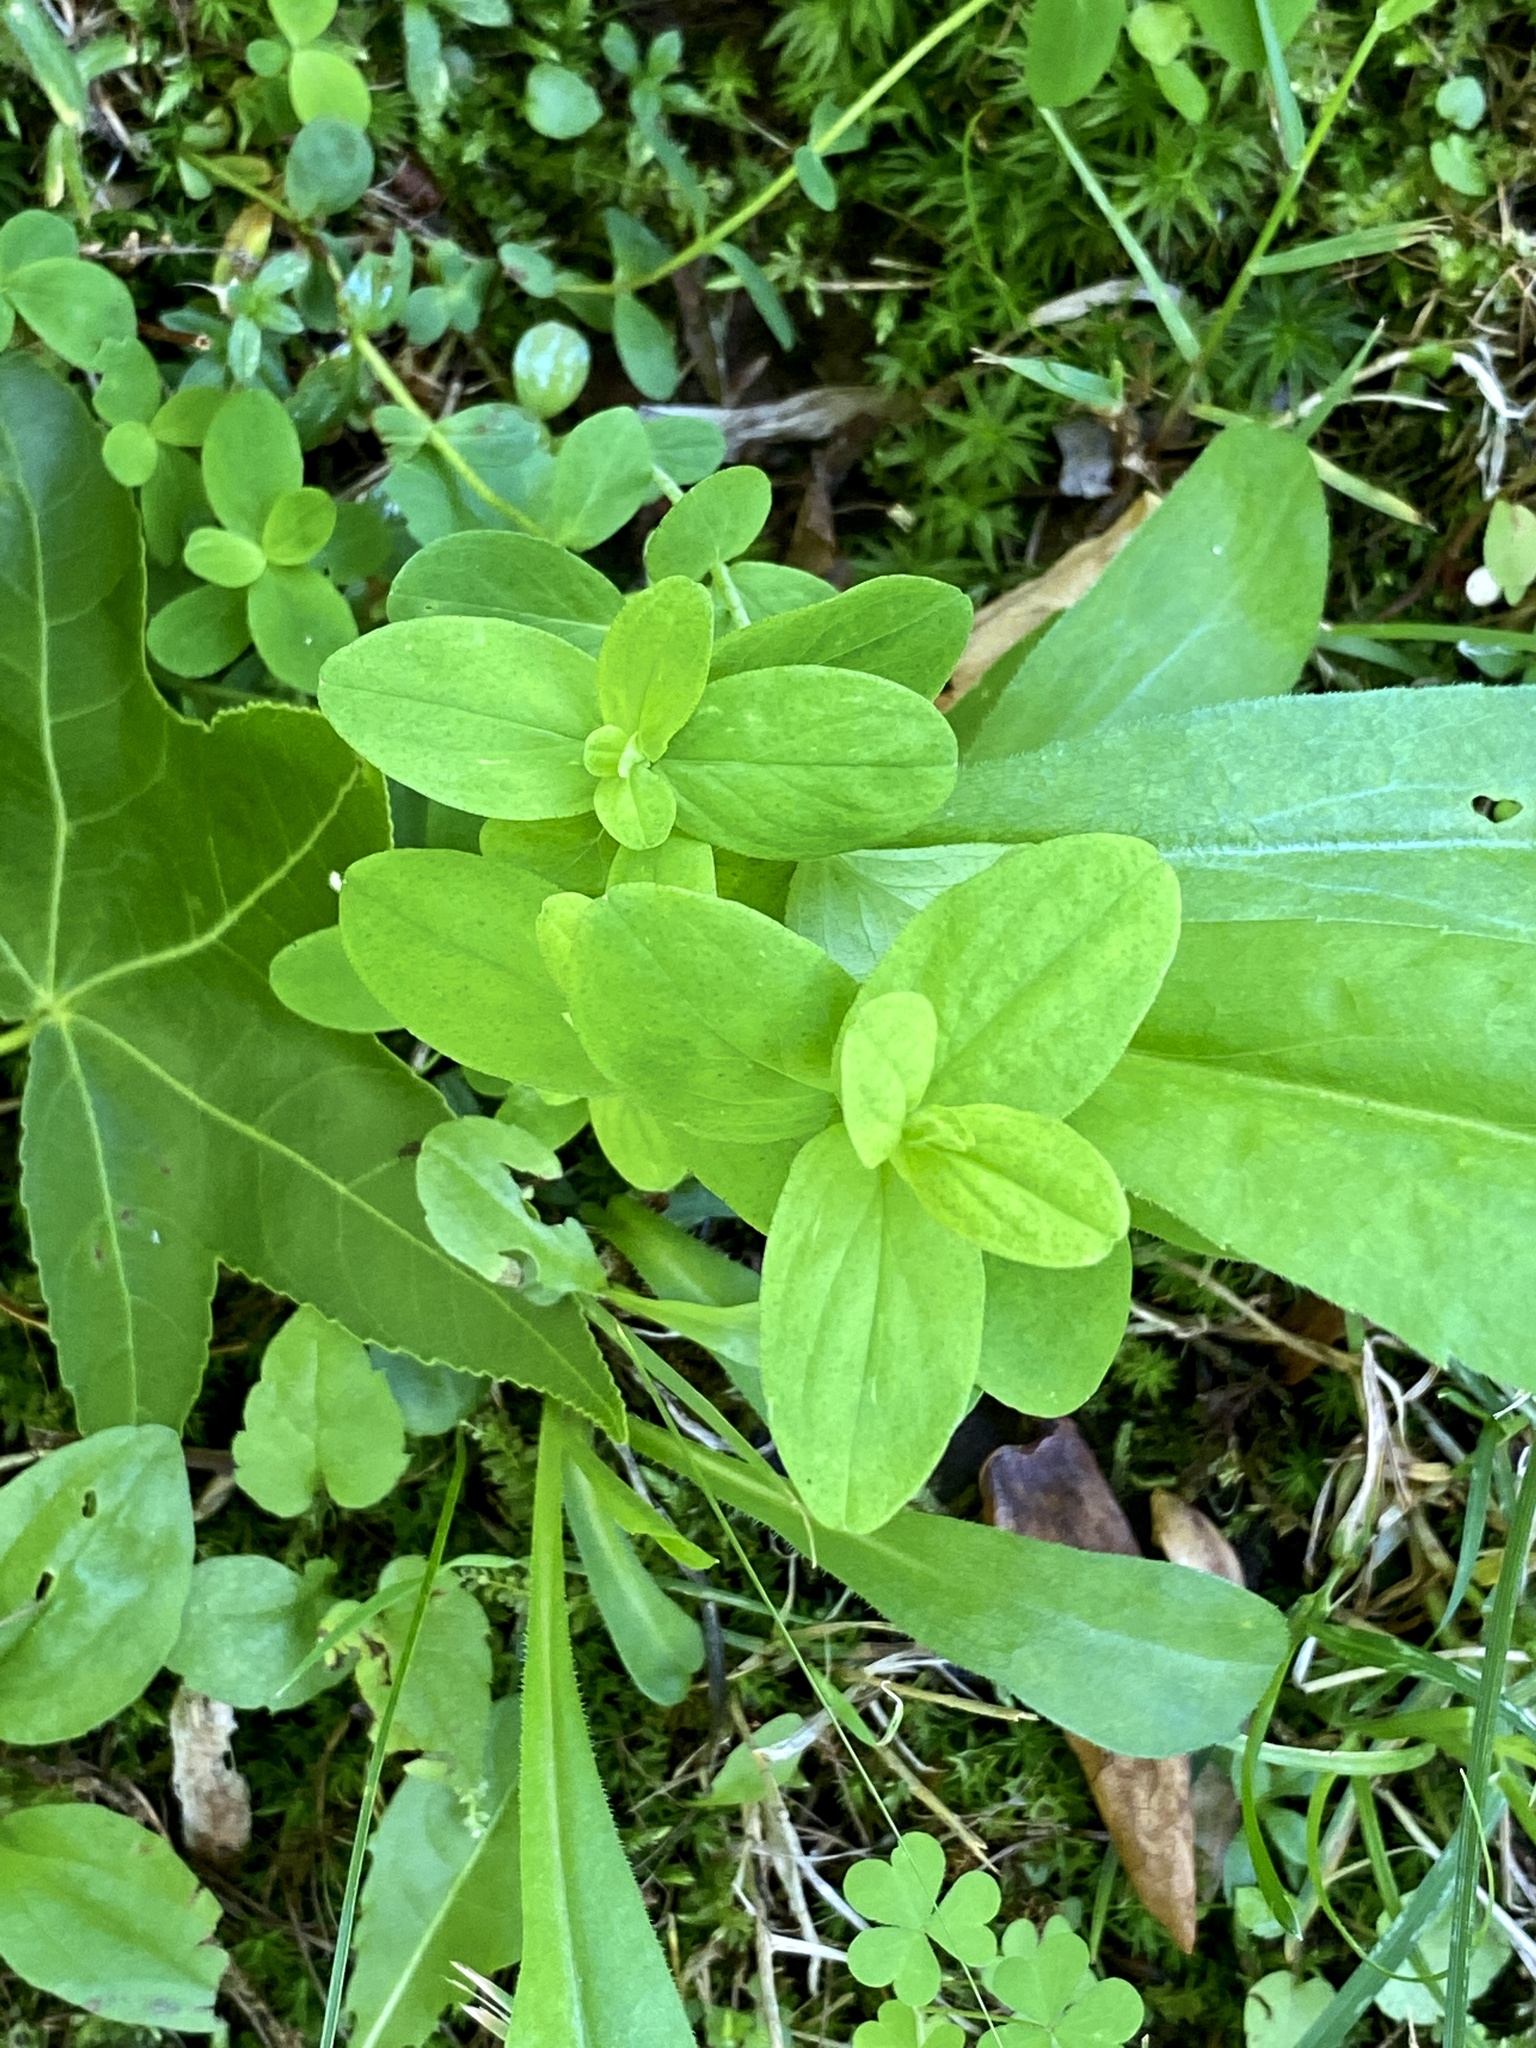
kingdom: Plantae
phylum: Tracheophyta
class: Magnoliopsida
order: Malpighiales
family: Hypericaceae
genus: Hypericum
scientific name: Hypericum punctatum
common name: Spotted st. john's-wort
